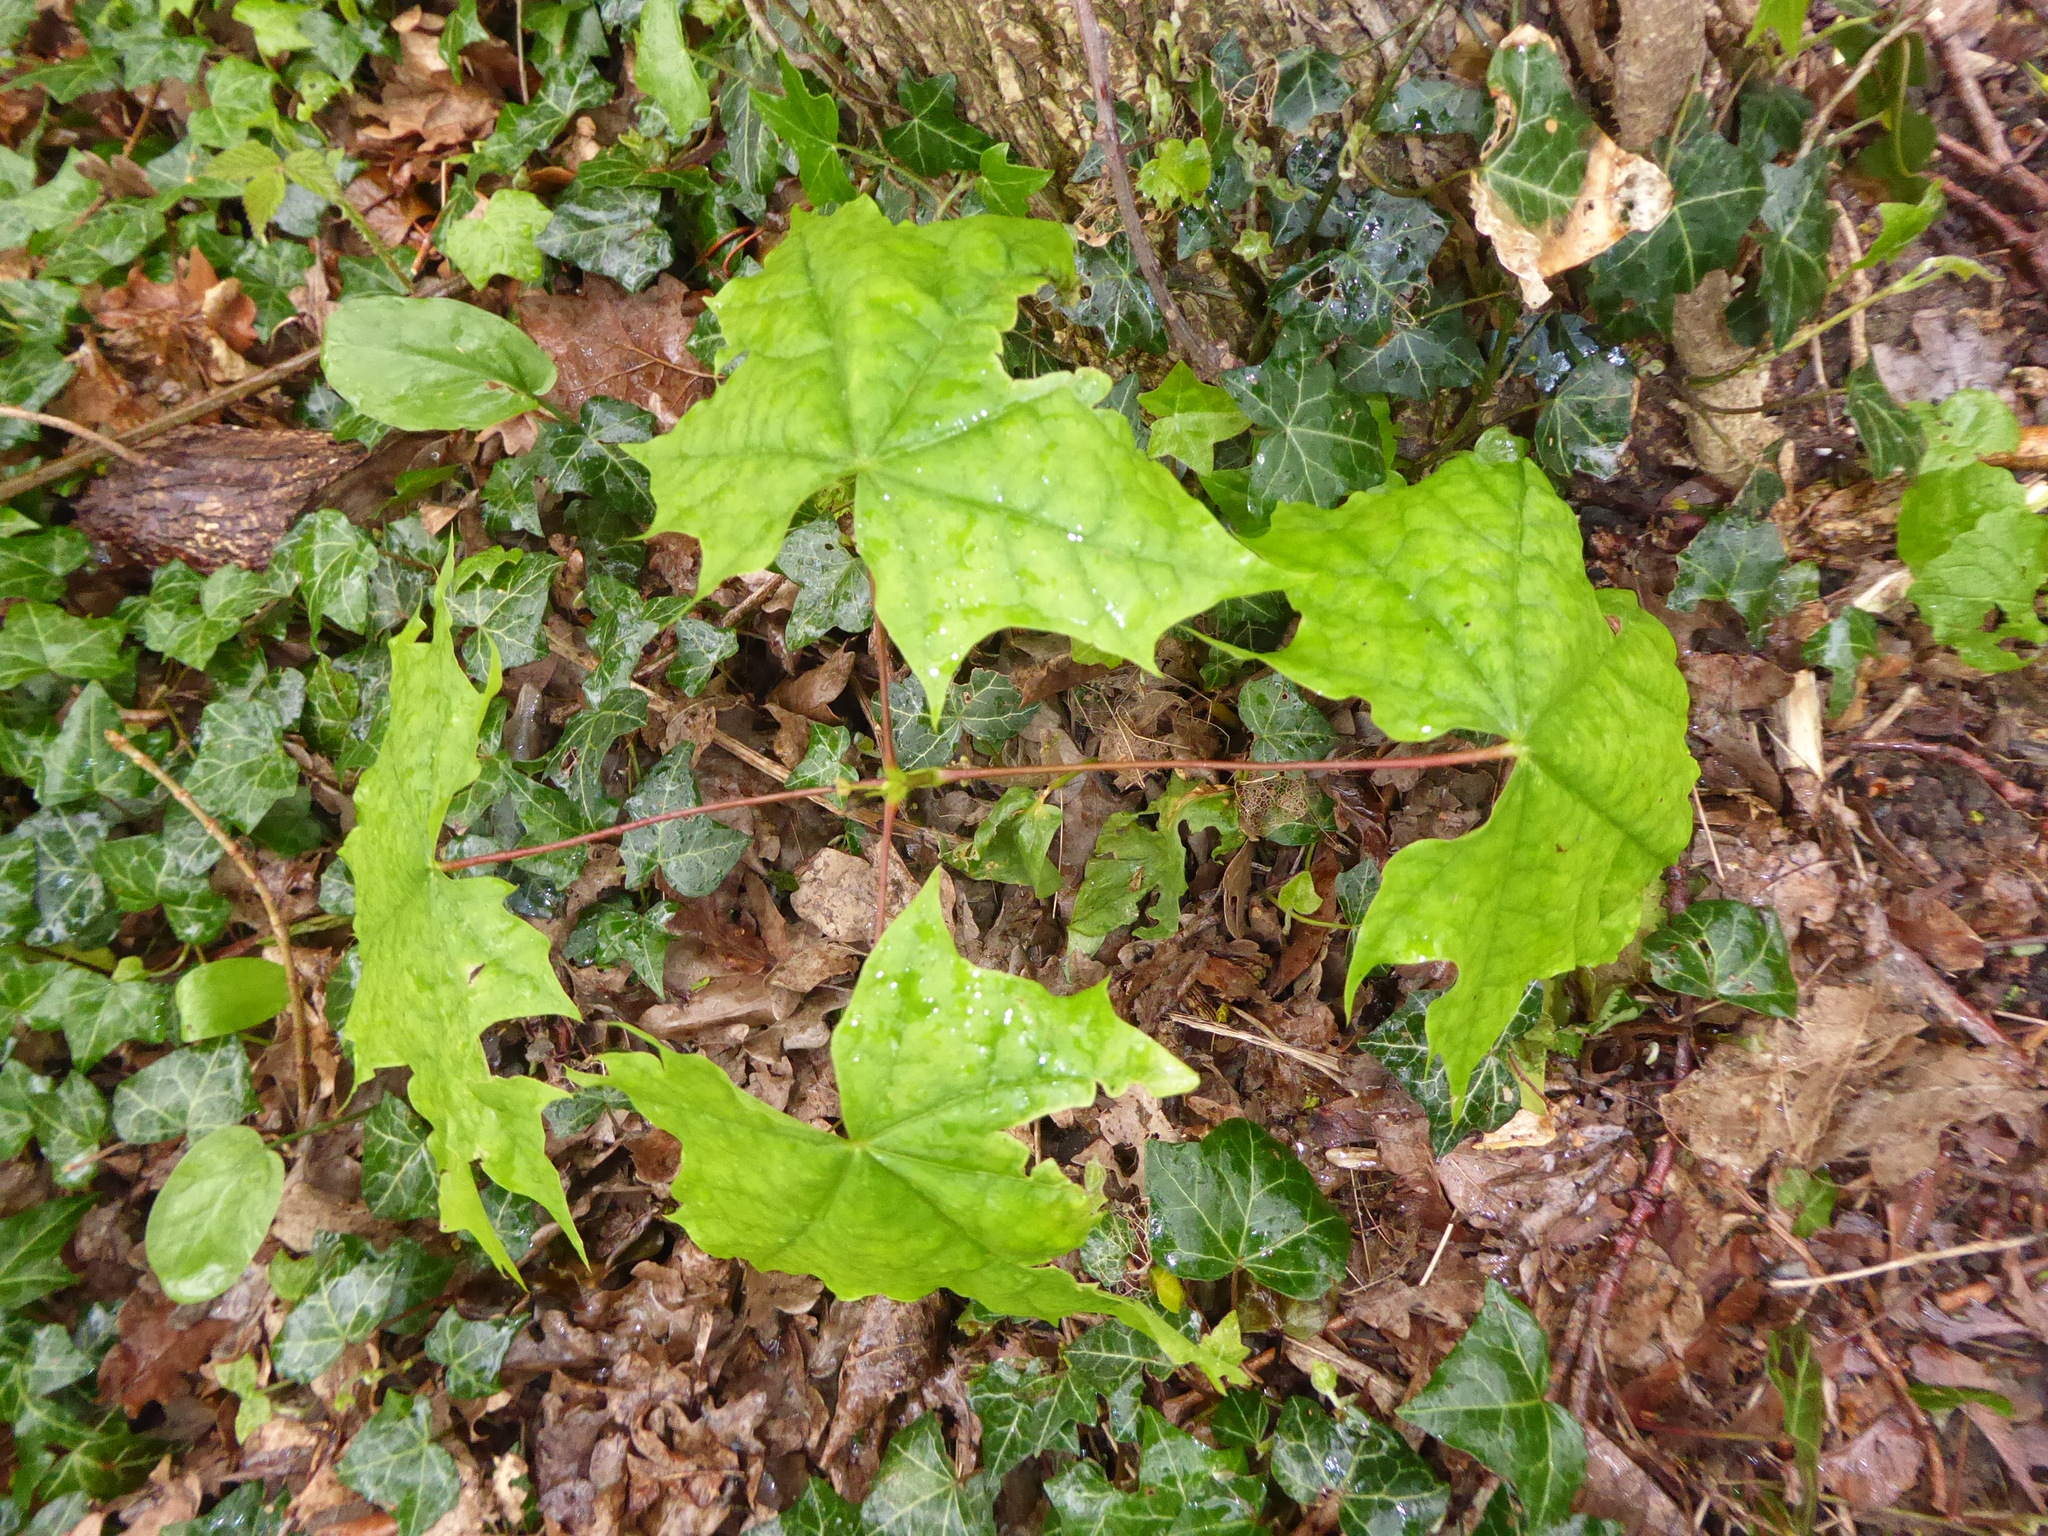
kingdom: Plantae
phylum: Tracheophyta
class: Magnoliopsida
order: Sapindales
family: Sapindaceae
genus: Acer
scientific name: Acer platanoides
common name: Norway maple
